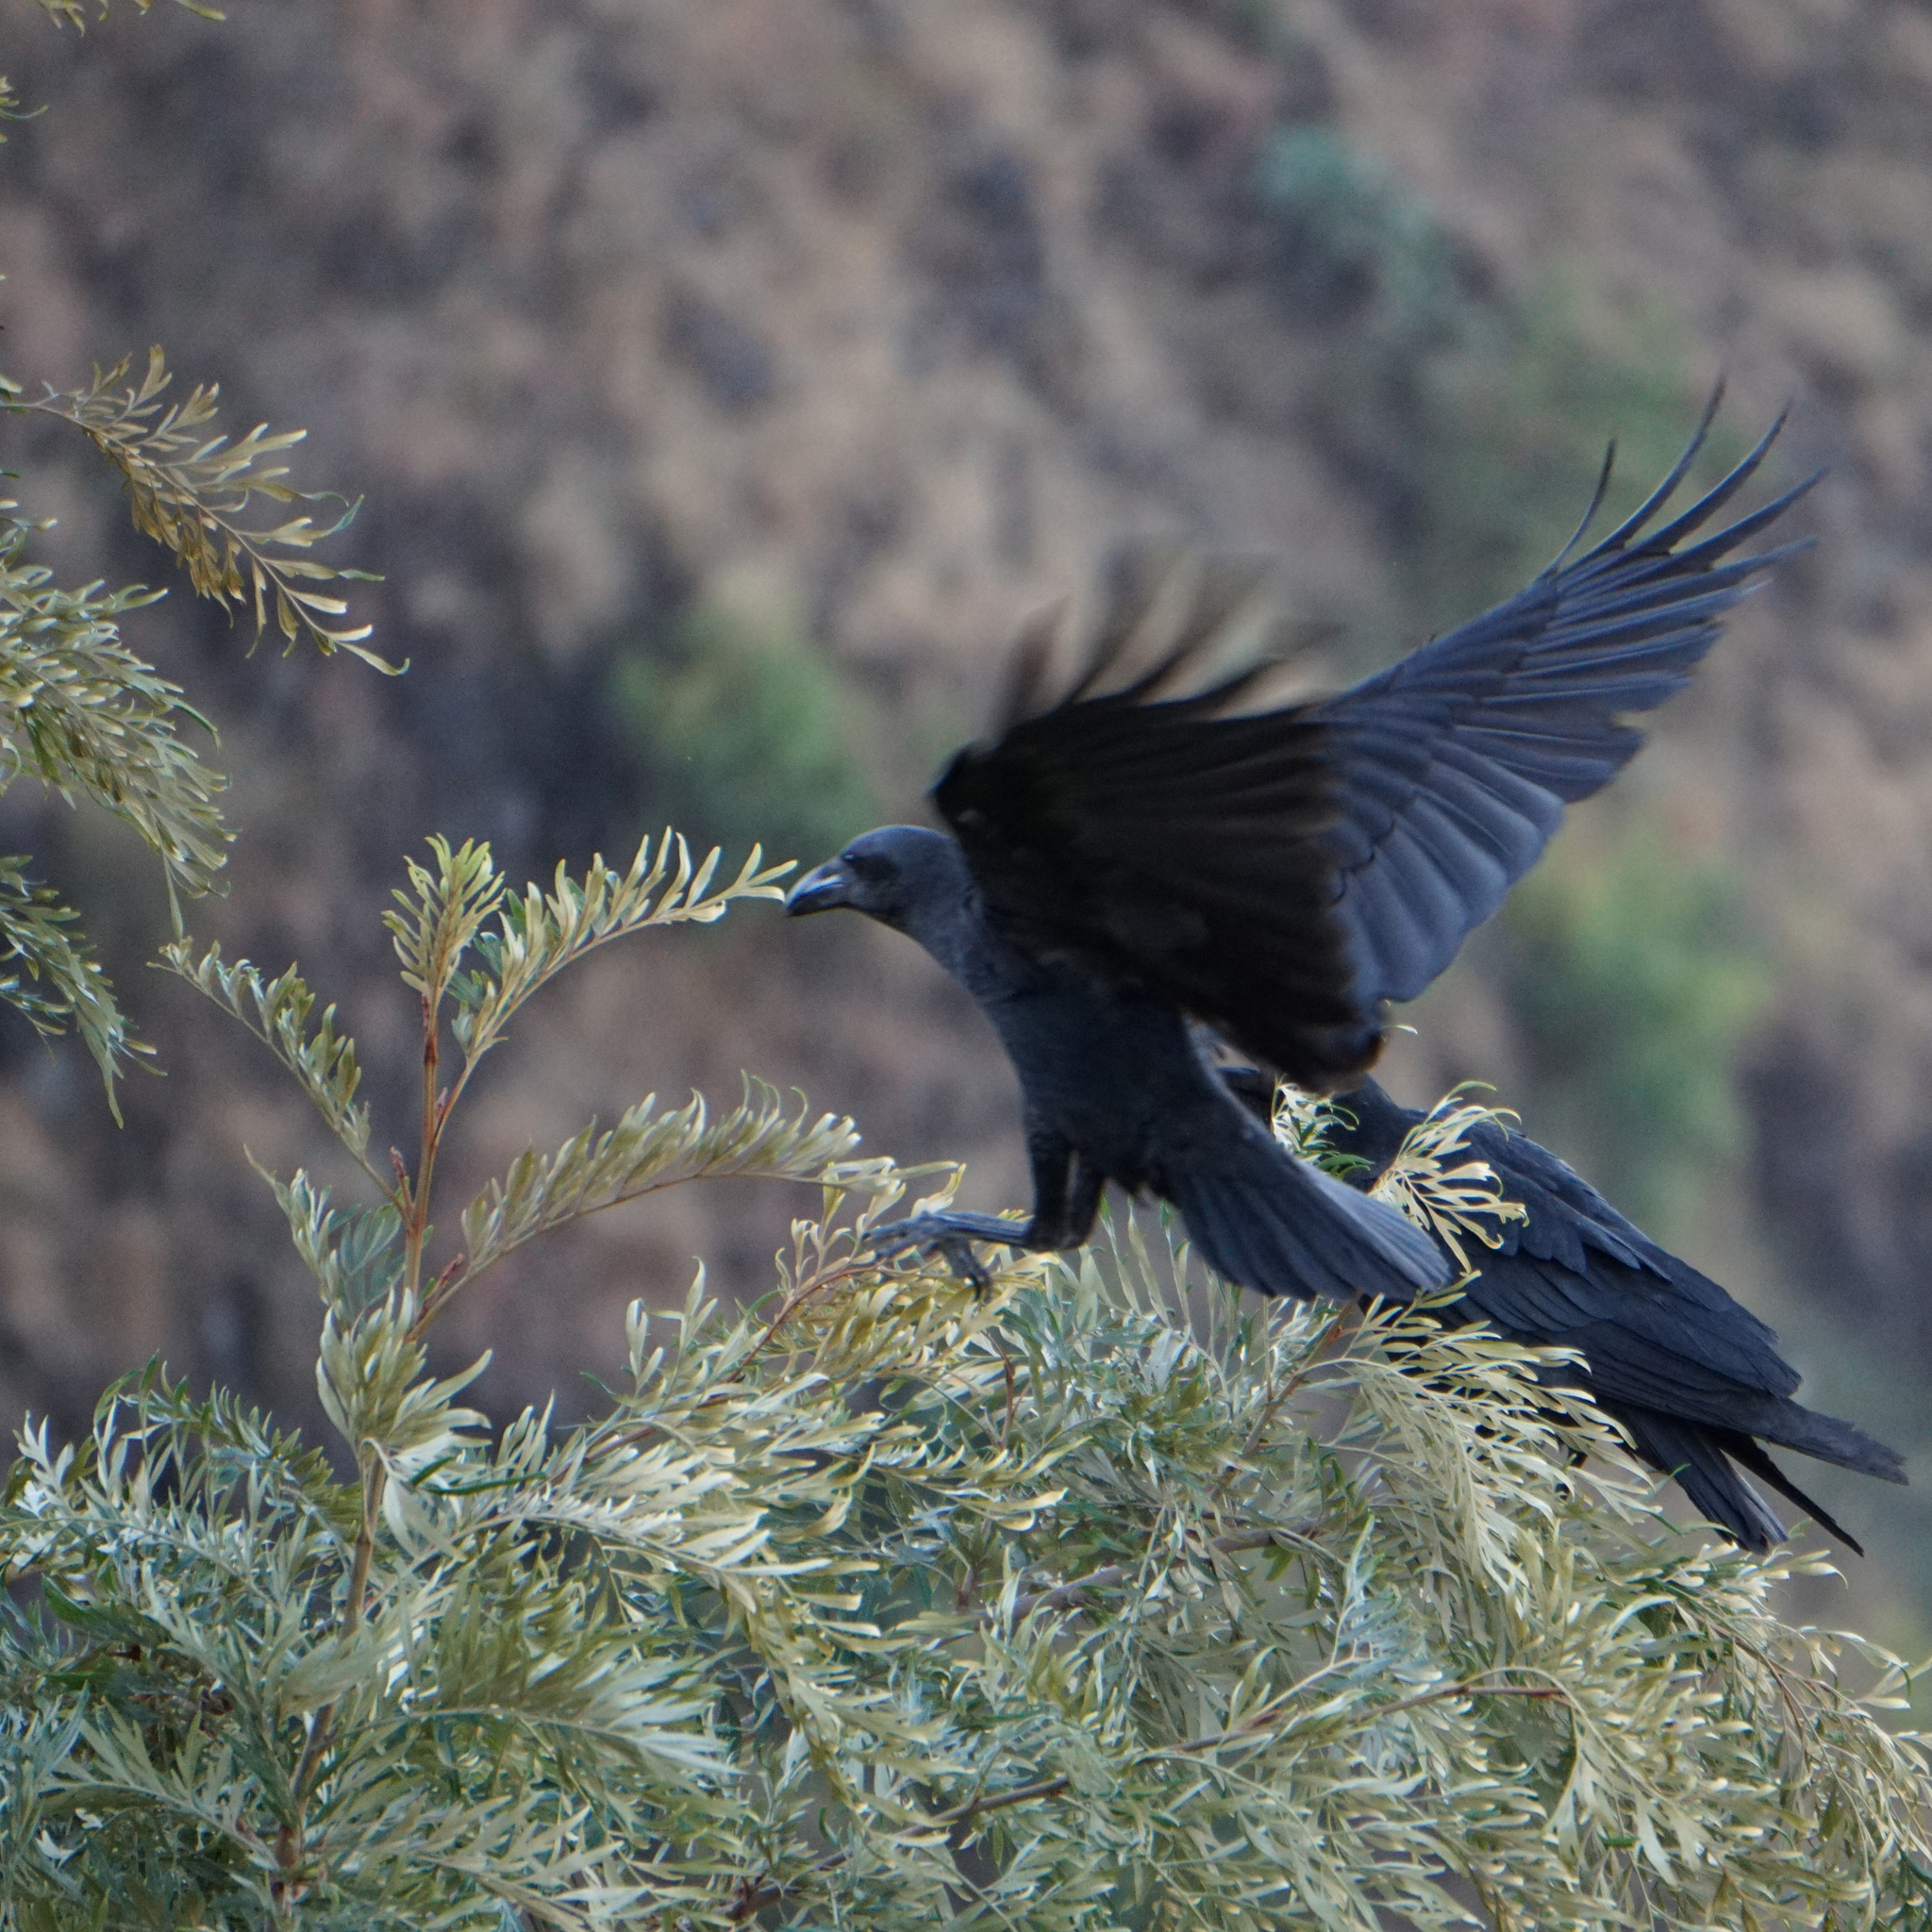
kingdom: Animalia
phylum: Chordata
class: Aves
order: Passeriformes
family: Corvidae
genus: Corvus
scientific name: Corvus rhipidurus
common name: Fan-tailed raven
